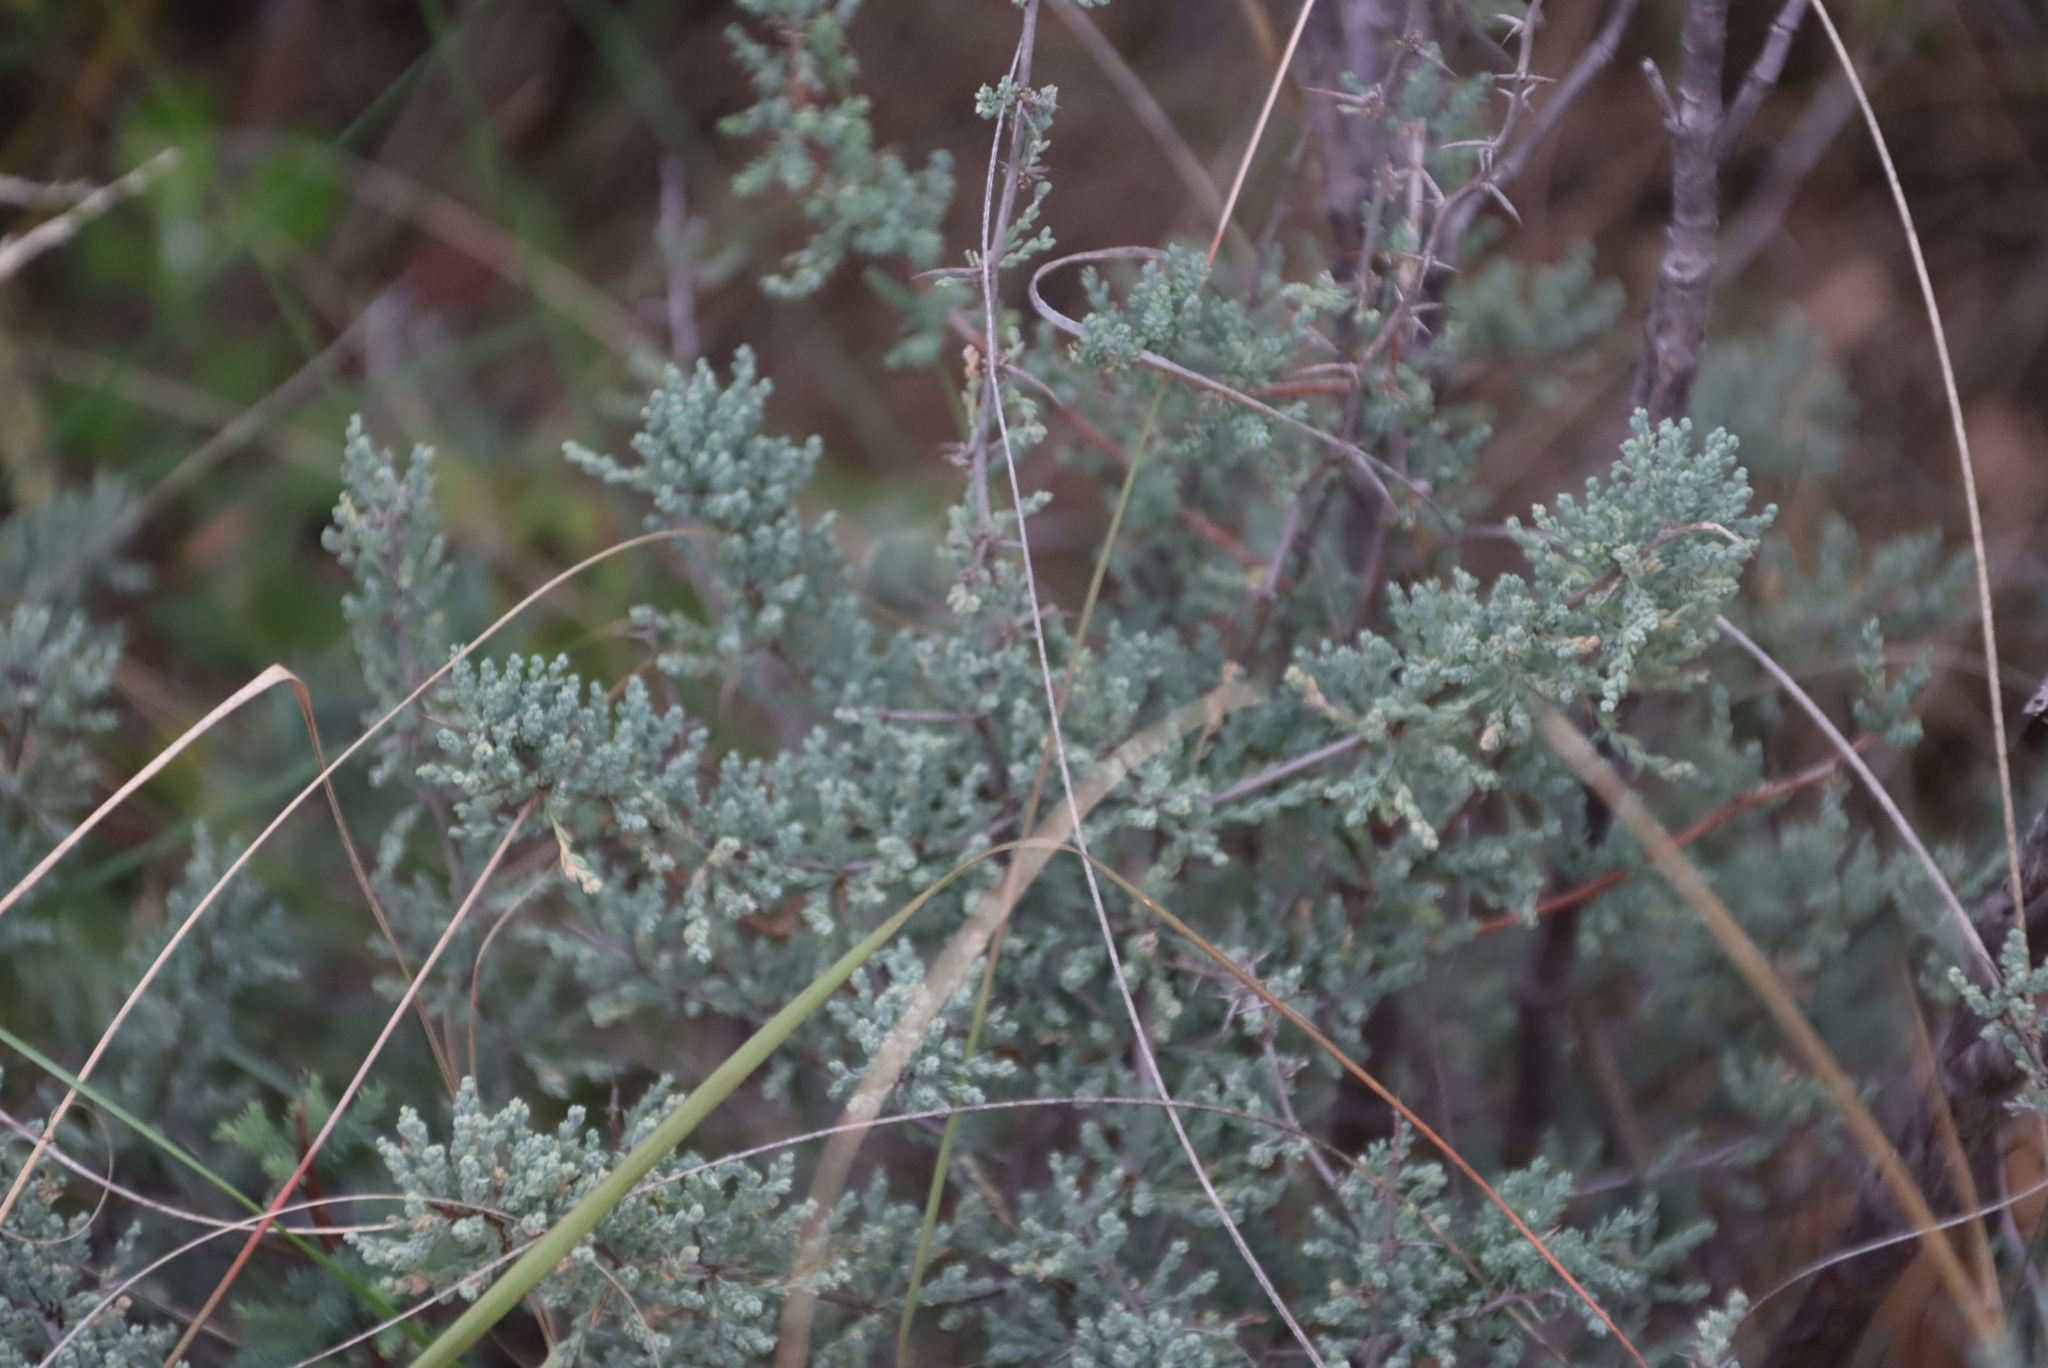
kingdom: Plantae
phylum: Tracheophyta
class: Liliopsida
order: Asparagales
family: Asparagaceae
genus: Asparagus
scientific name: Asparagus capensis
